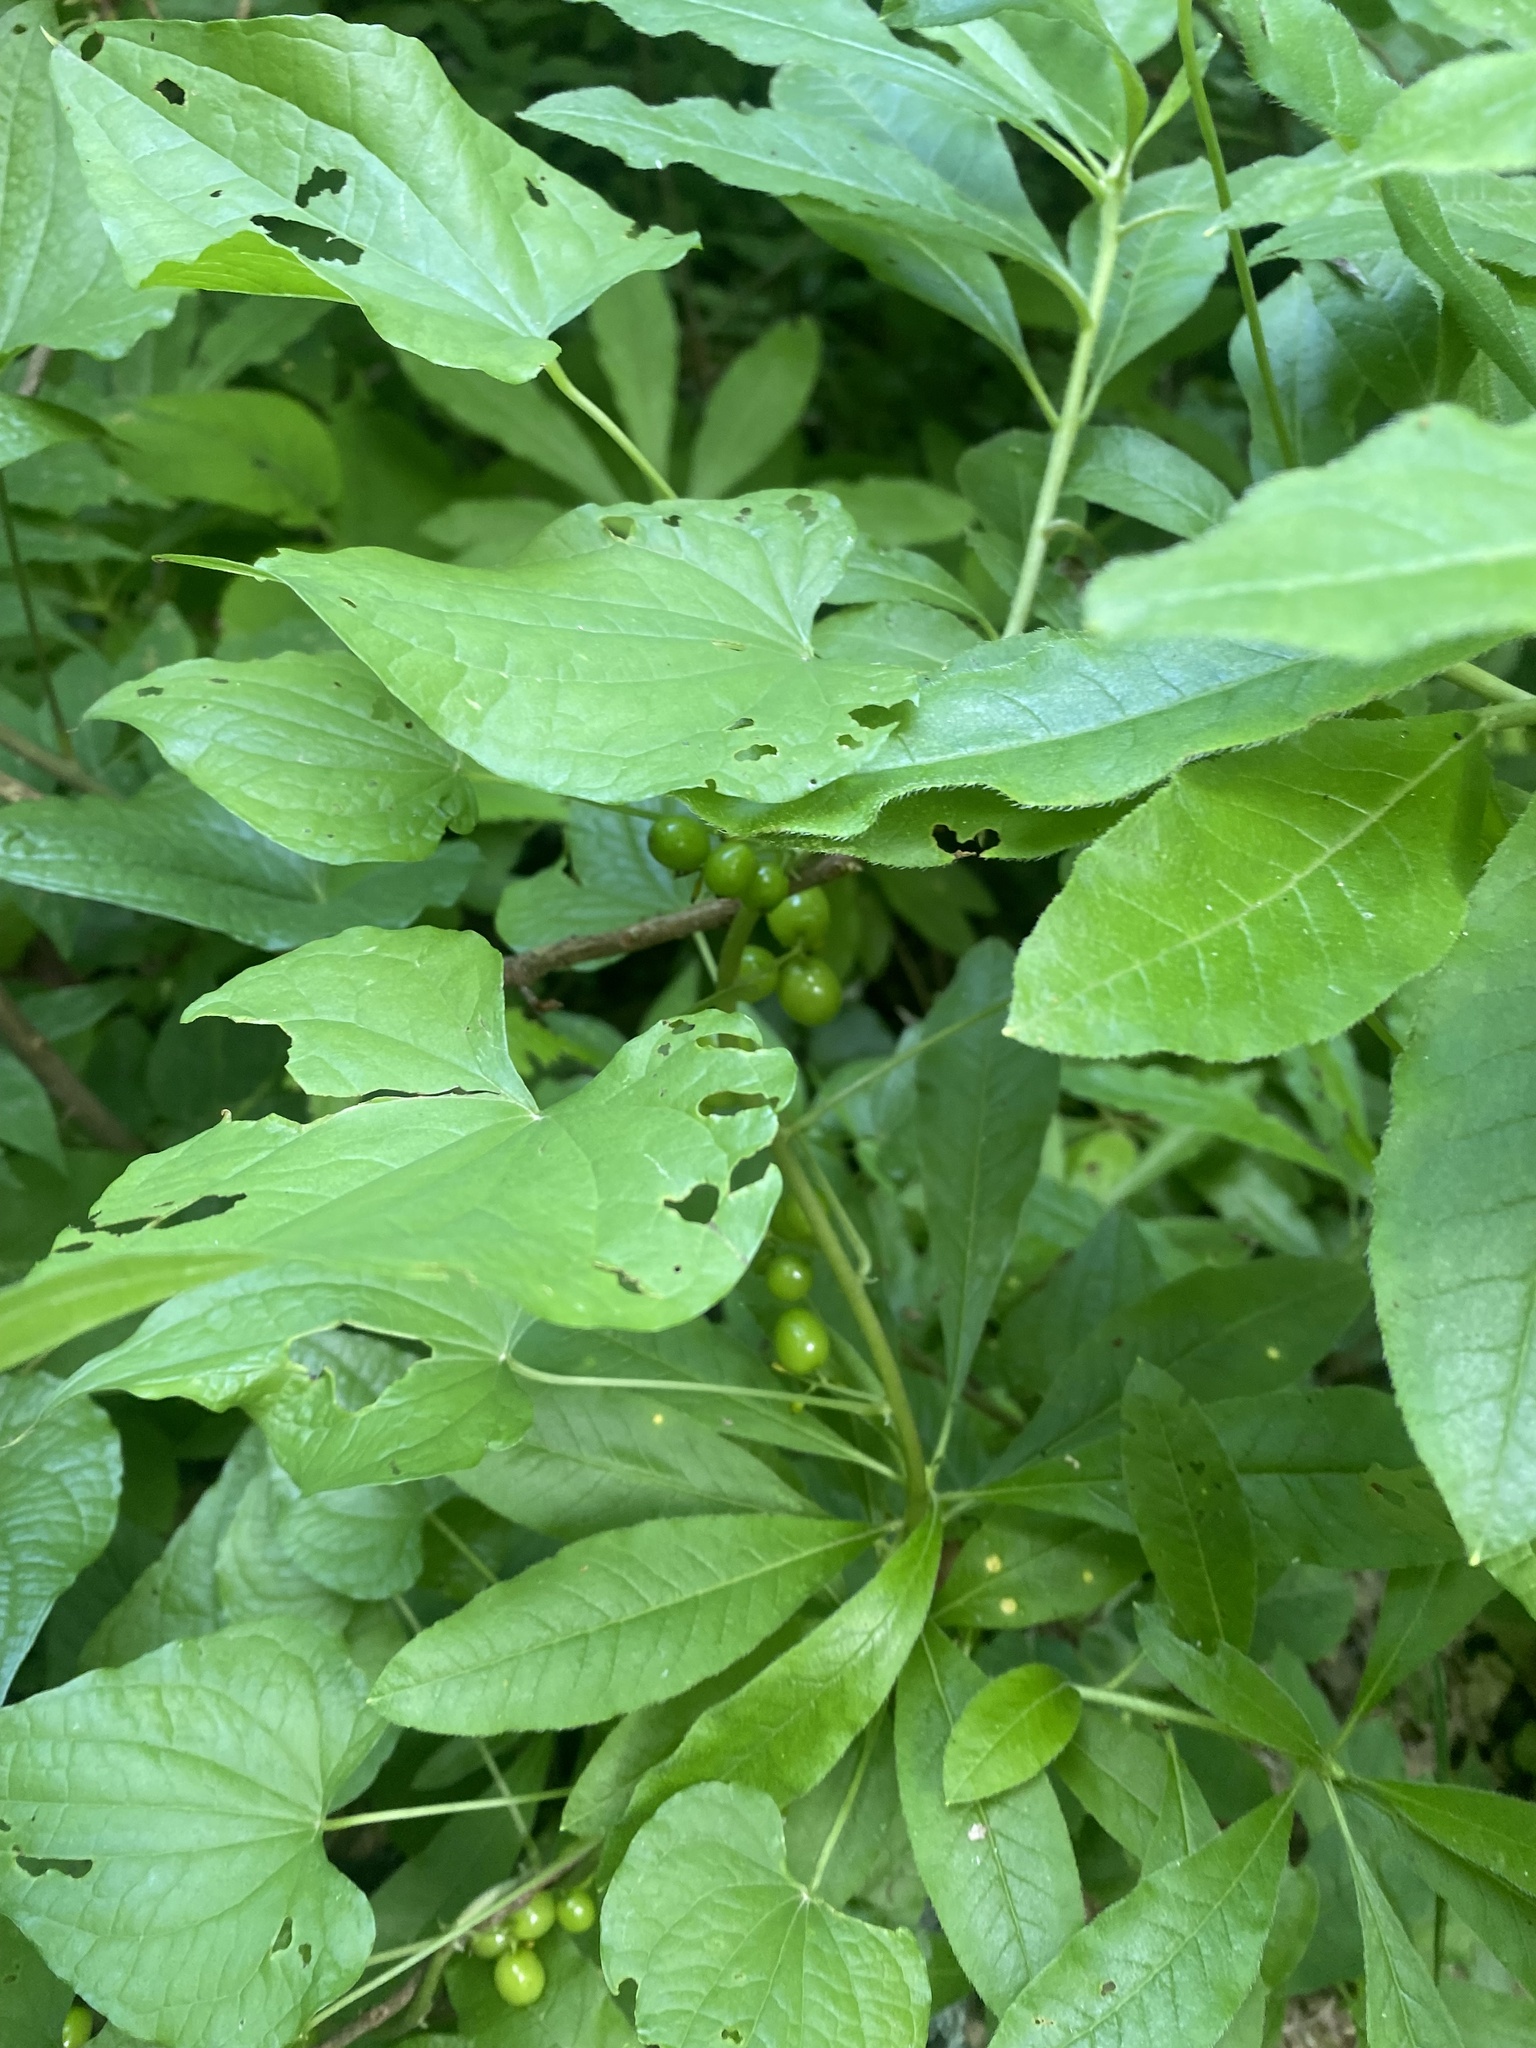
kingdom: Plantae
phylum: Tracheophyta
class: Liliopsida
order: Dioscoreales
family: Dioscoreaceae
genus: Dioscorea
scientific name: Dioscorea communis
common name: Black-bindweed
